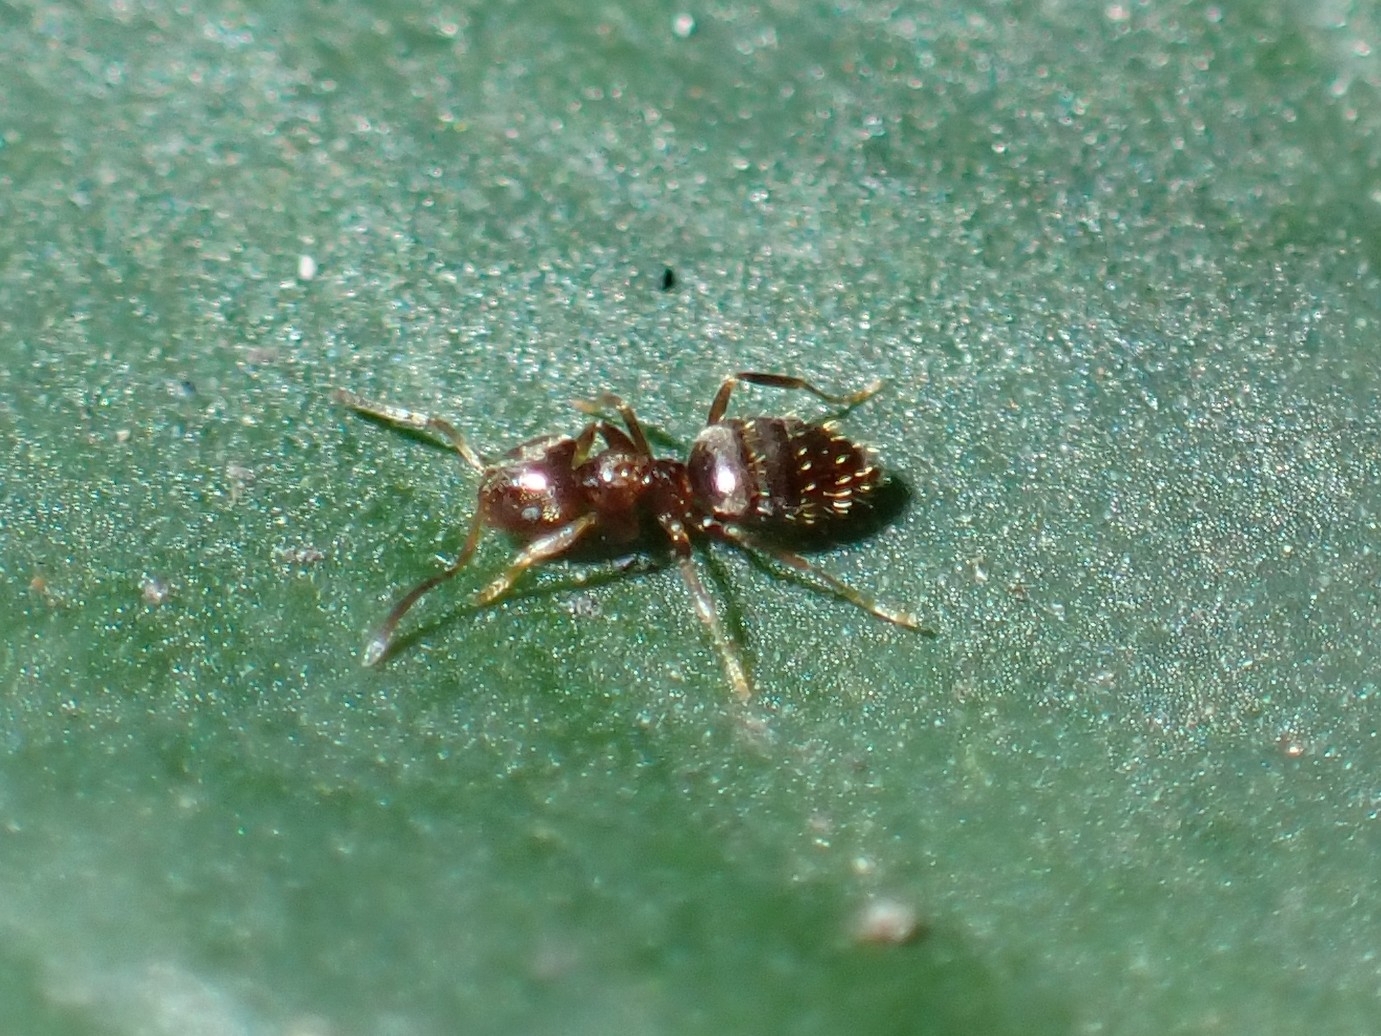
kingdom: Animalia
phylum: Arthropoda
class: Insecta
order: Hymenoptera
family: Formicidae
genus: Brachymyrmex
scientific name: Brachymyrmex cordemoyi
